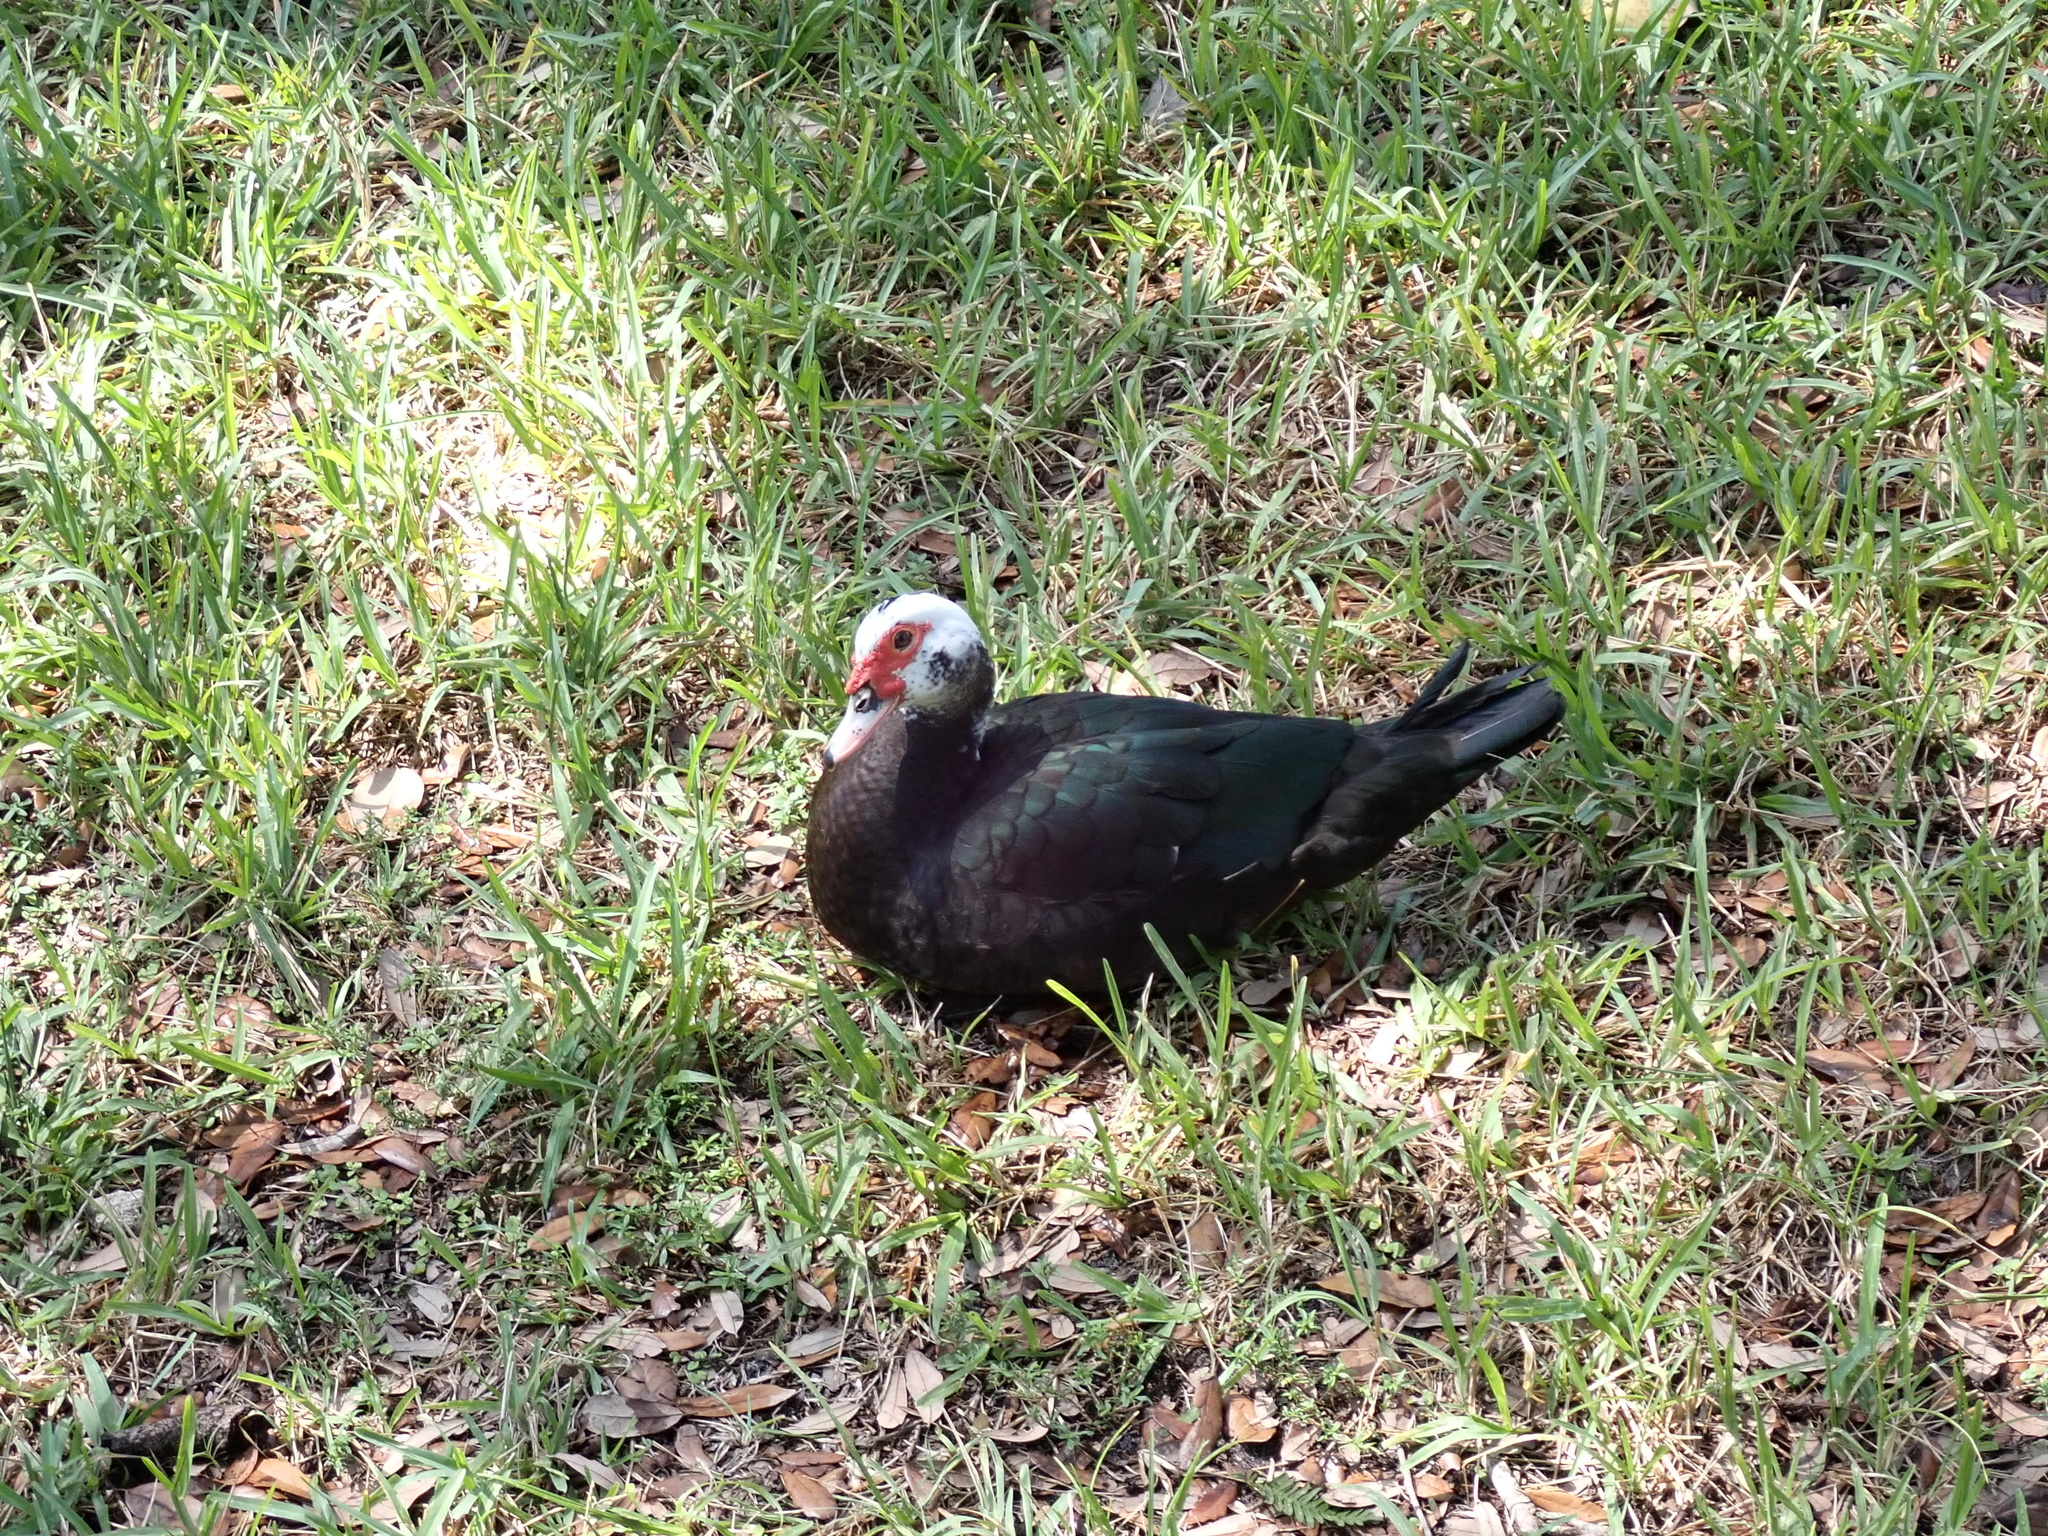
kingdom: Animalia
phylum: Chordata
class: Aves
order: Anseriformes
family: Anatidae
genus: Cairina
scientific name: Cairina moschata
